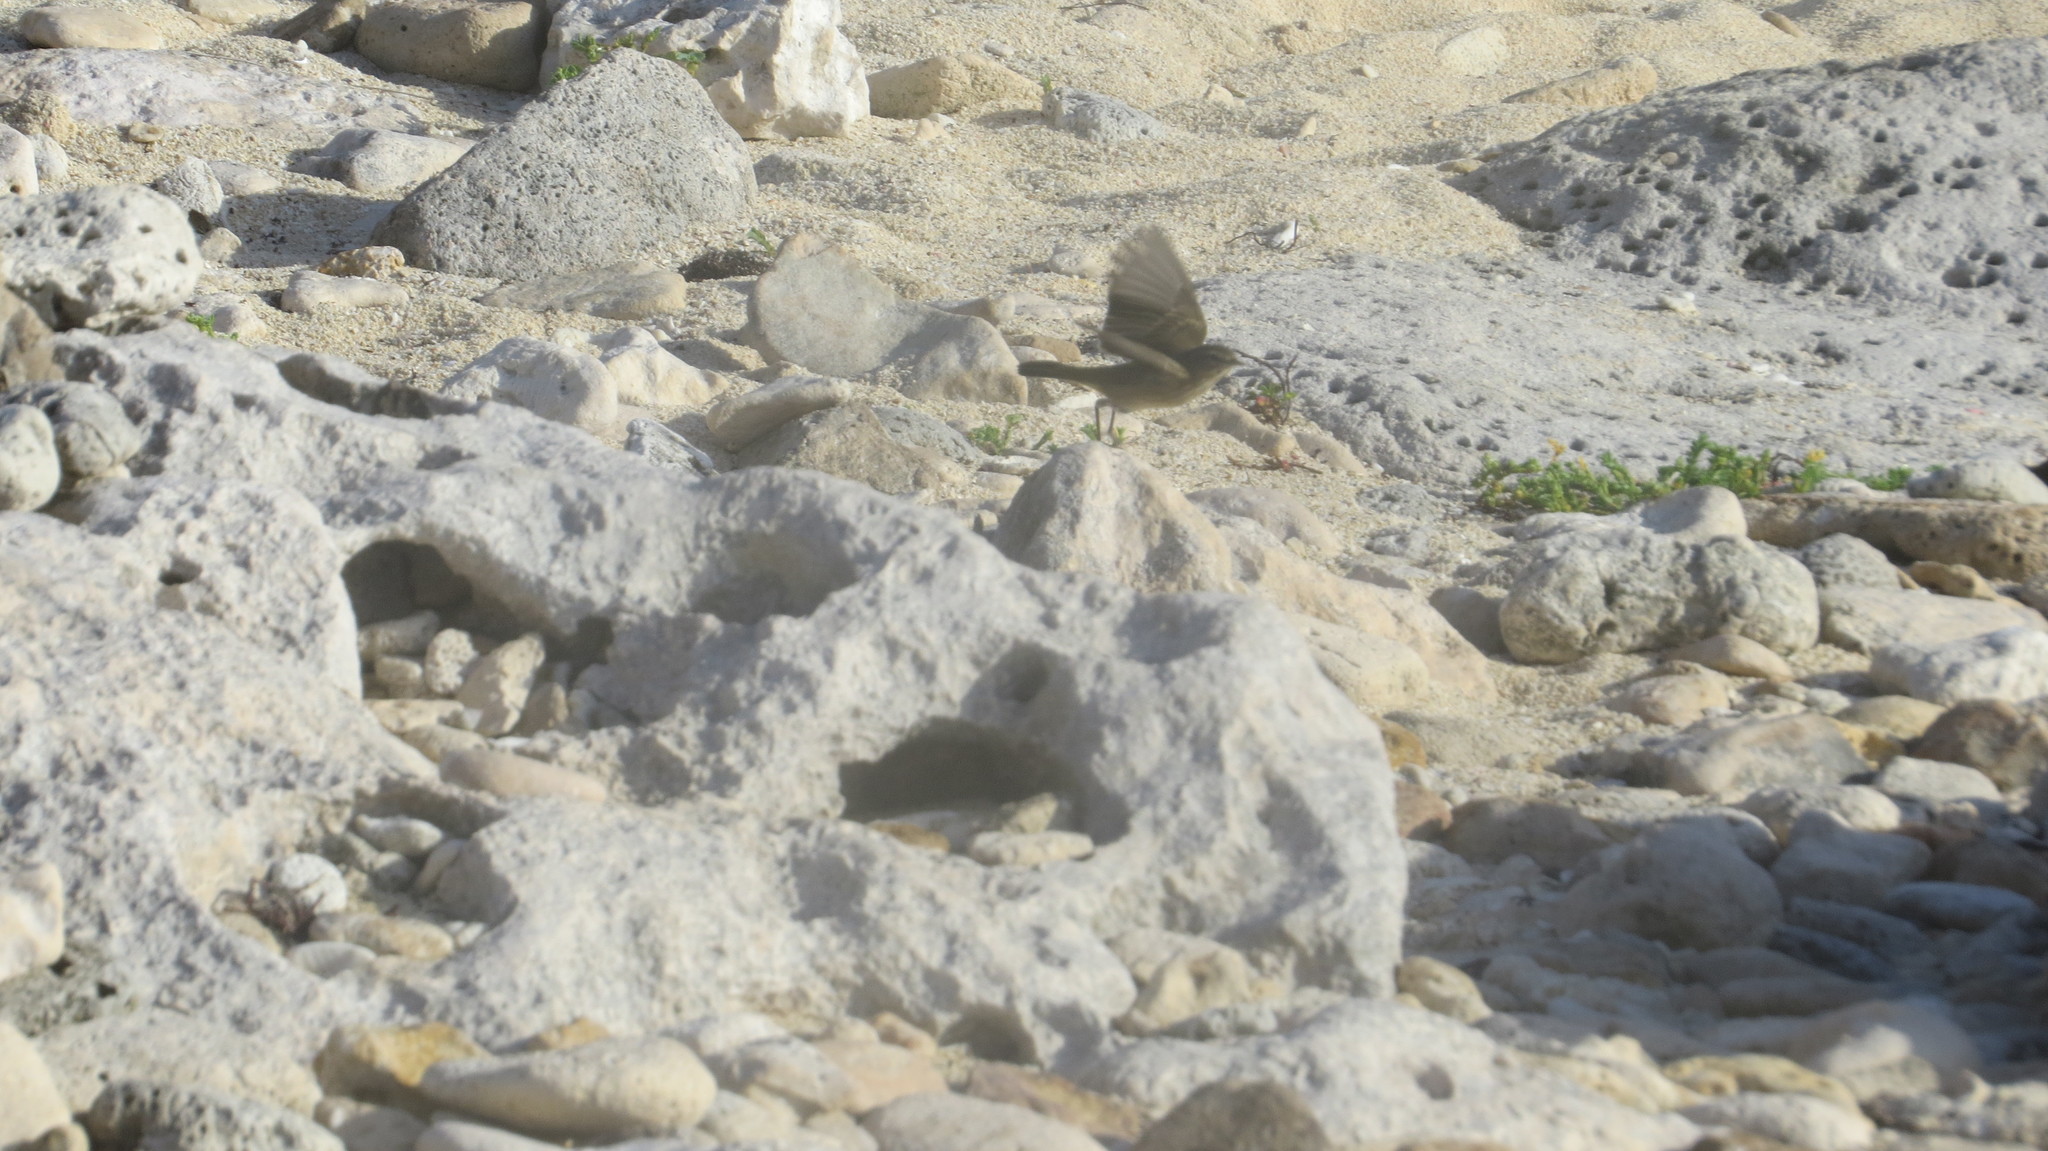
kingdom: Animalia
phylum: Chordata
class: Aves
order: Passeriformes
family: Parulidae
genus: Setophaga
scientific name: Setophaga palmarum
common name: Palm warbler
